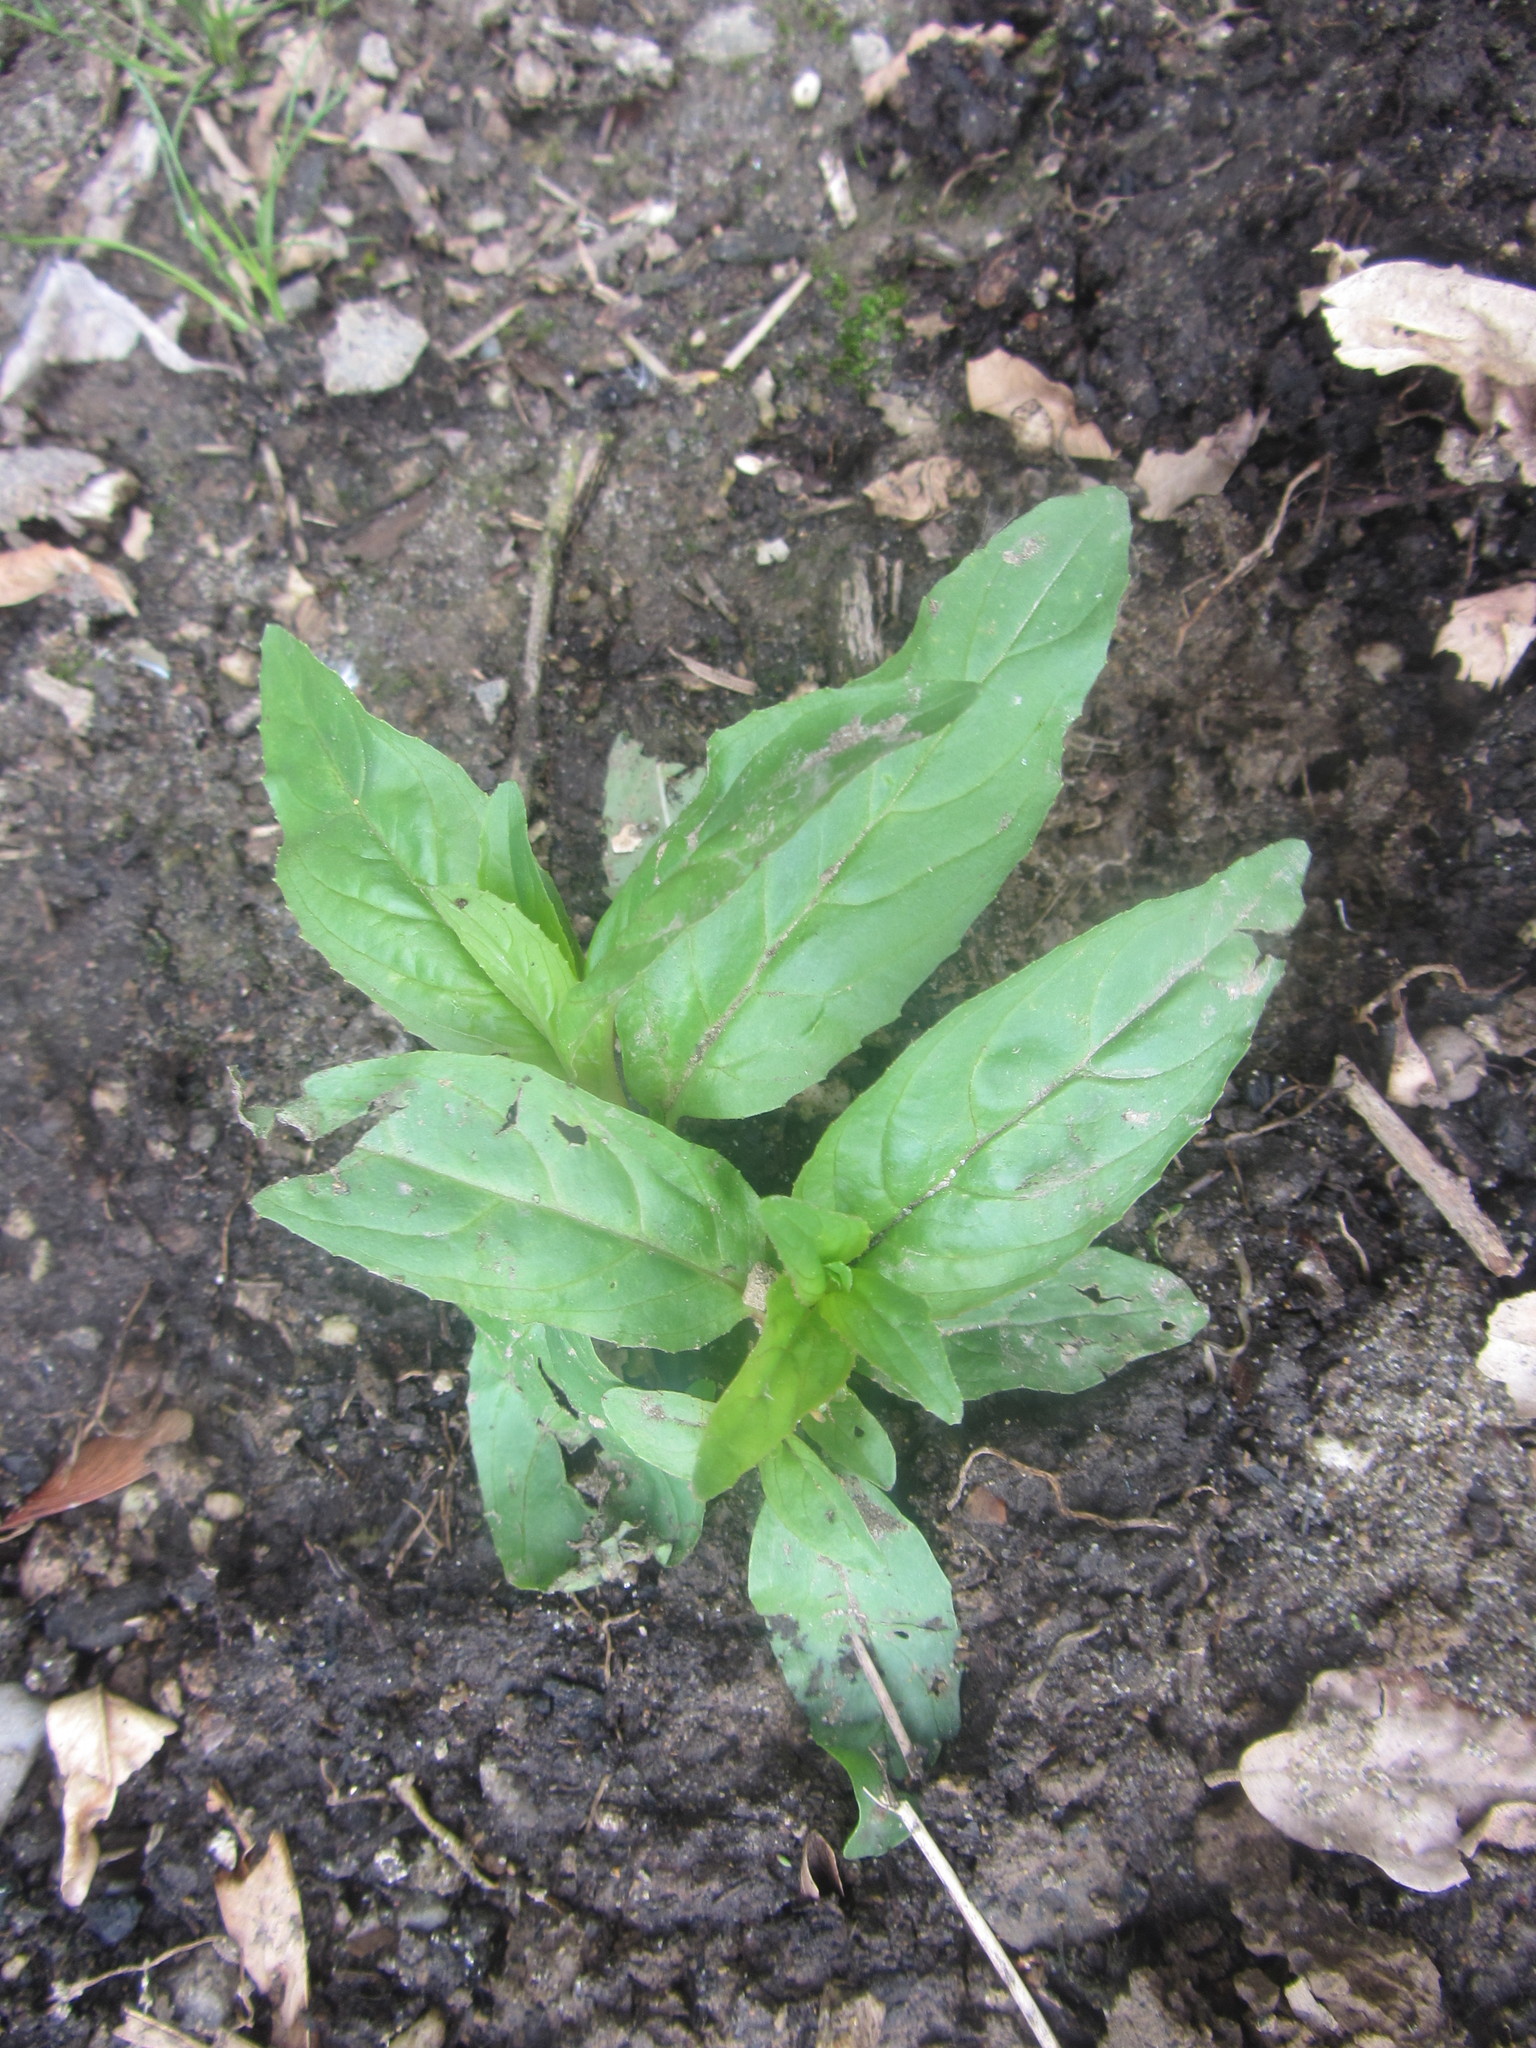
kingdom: Plantae
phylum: Tracheophyta
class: Magnoliopsida
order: Myrtales
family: Onagraceae
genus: Epilobium
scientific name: Epilobium ciliatum
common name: American willowherb
